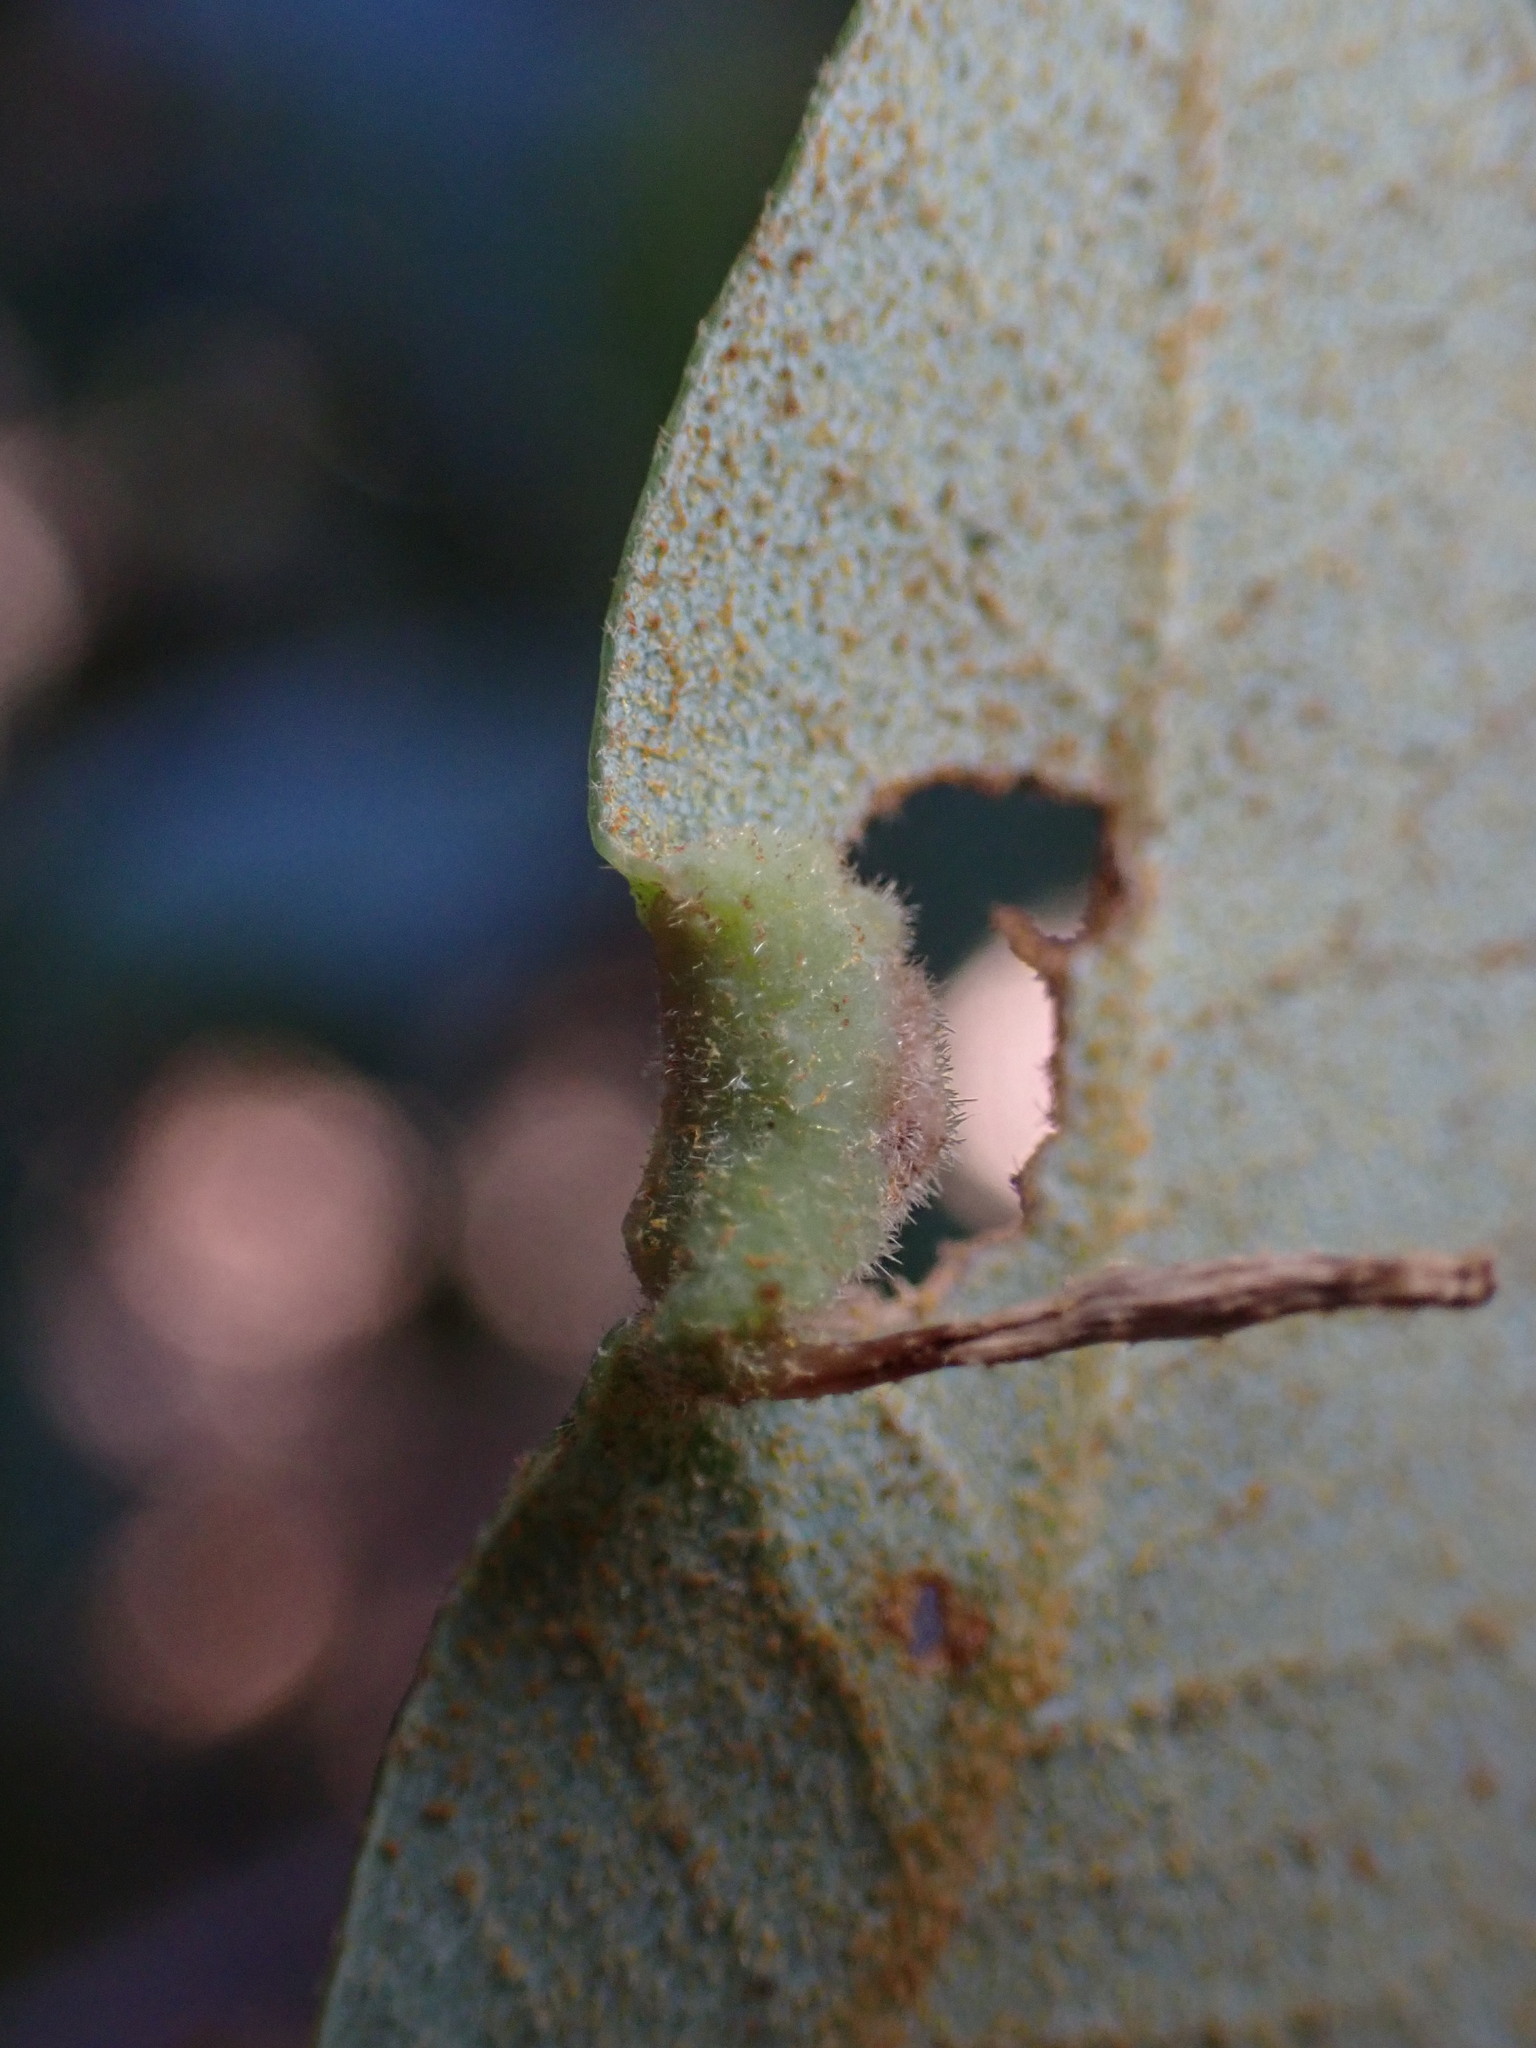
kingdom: Animalia
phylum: Arthropoda
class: Insecta
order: Diptera
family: Cecidomyiidae
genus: Dasineura
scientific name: Dasineura silvestrii
